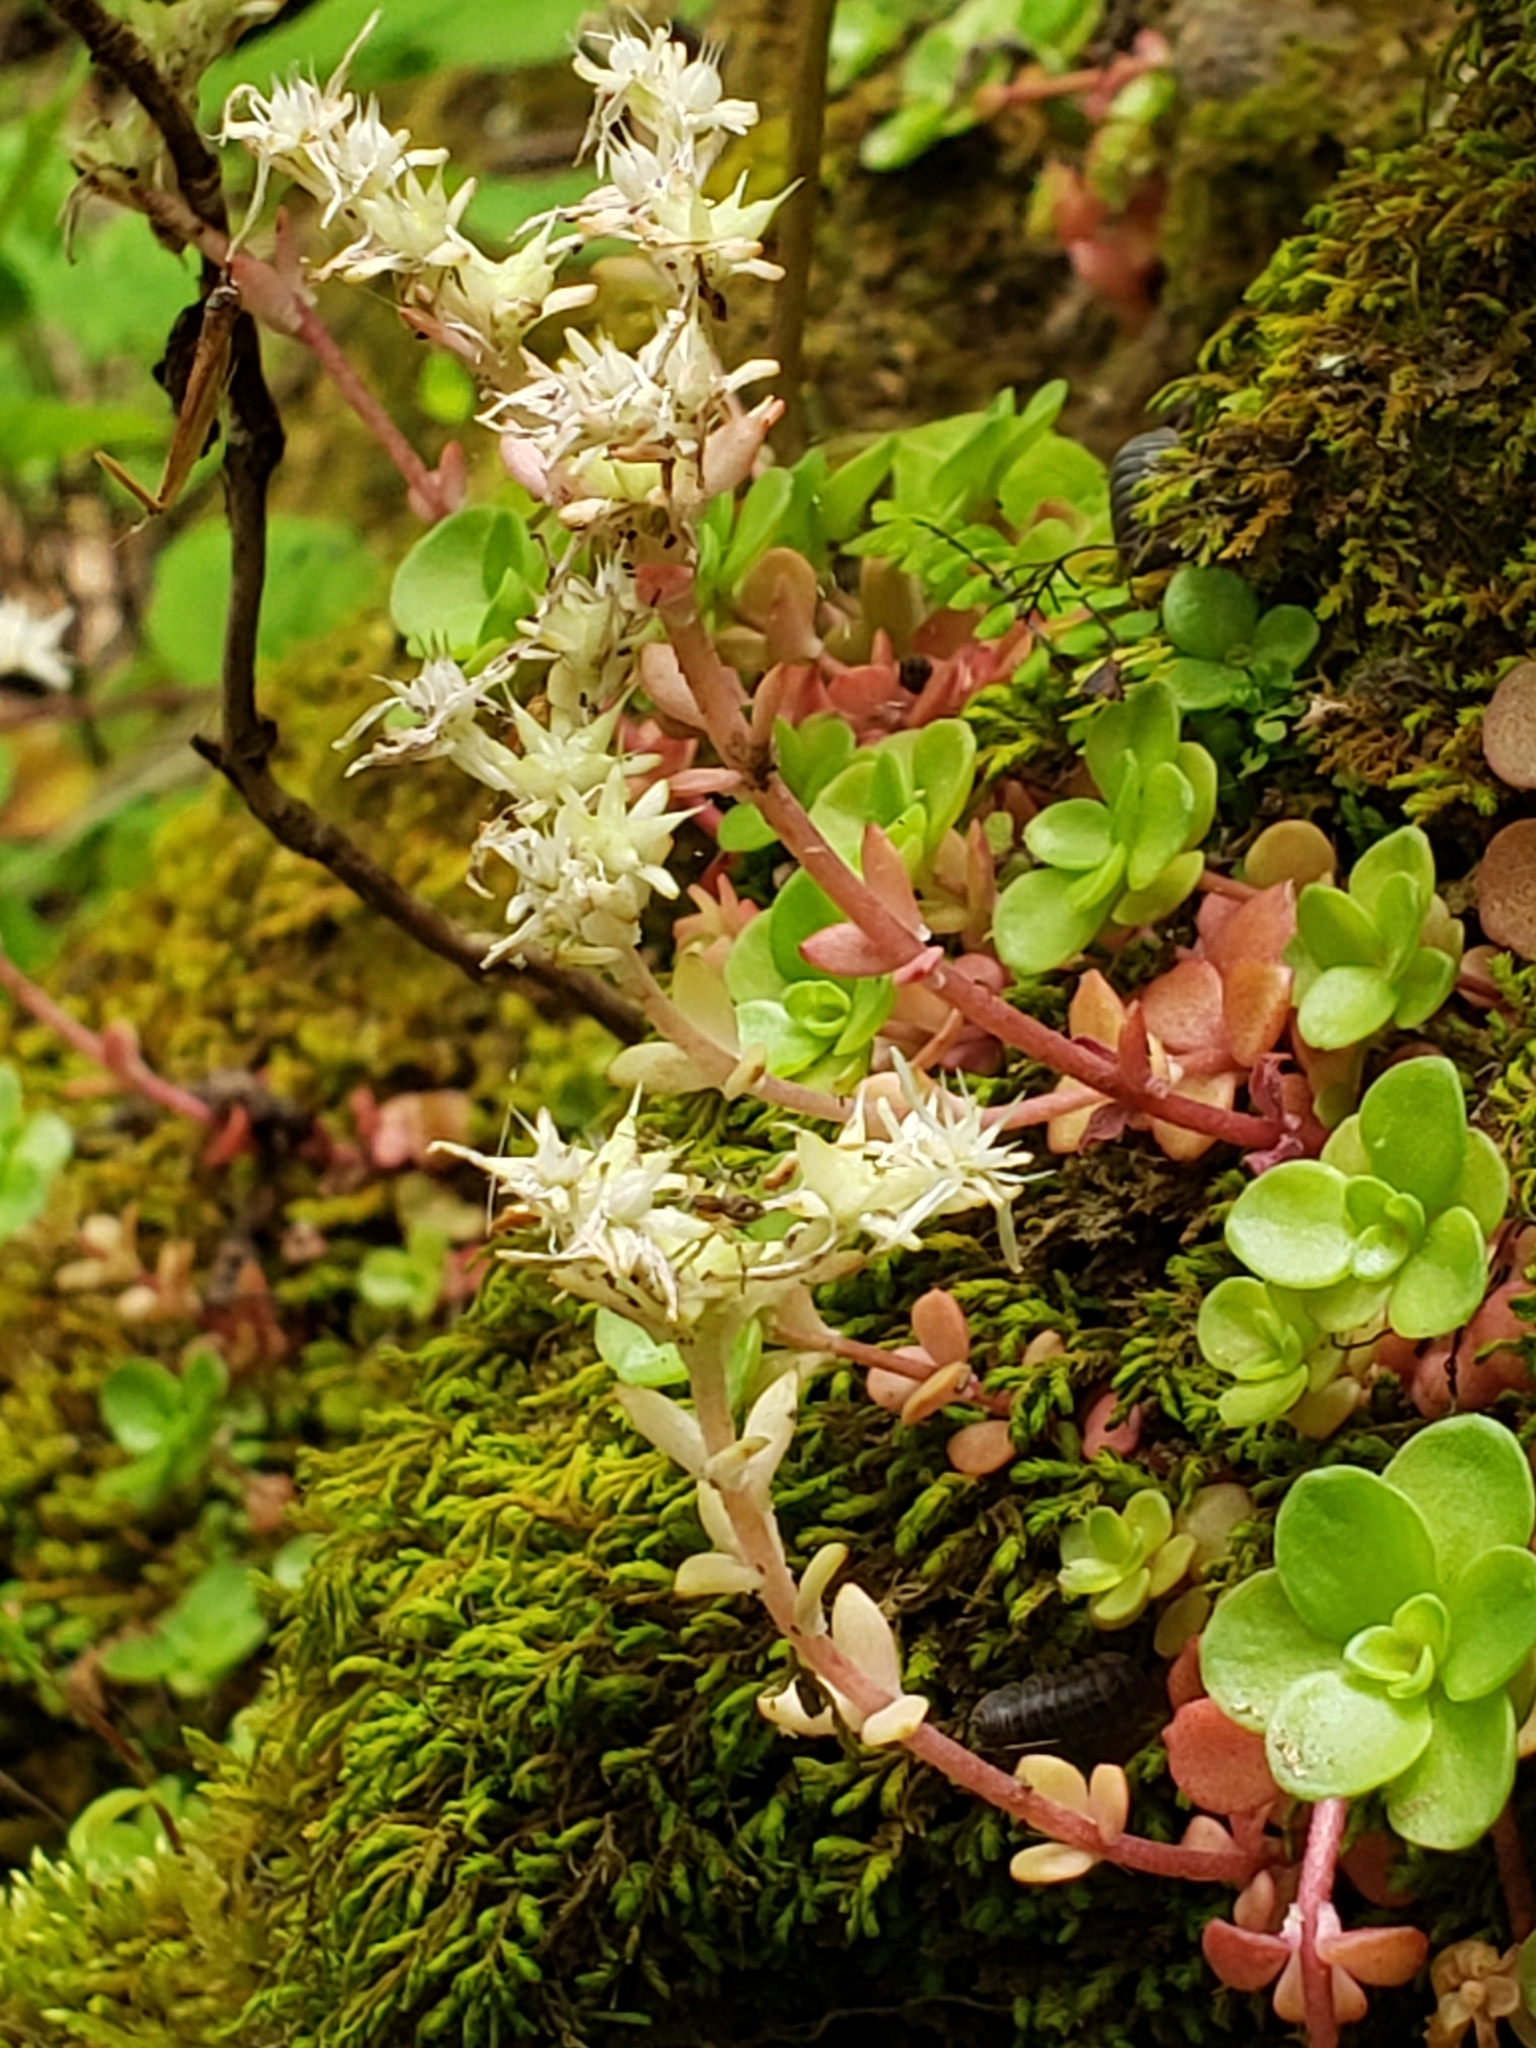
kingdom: Plantae
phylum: Tracheophyta
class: Magnoliopsida
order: Saxifragales
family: Crassulaceae
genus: Sedum
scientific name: Sedum ternatum
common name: Wild stonecrop
